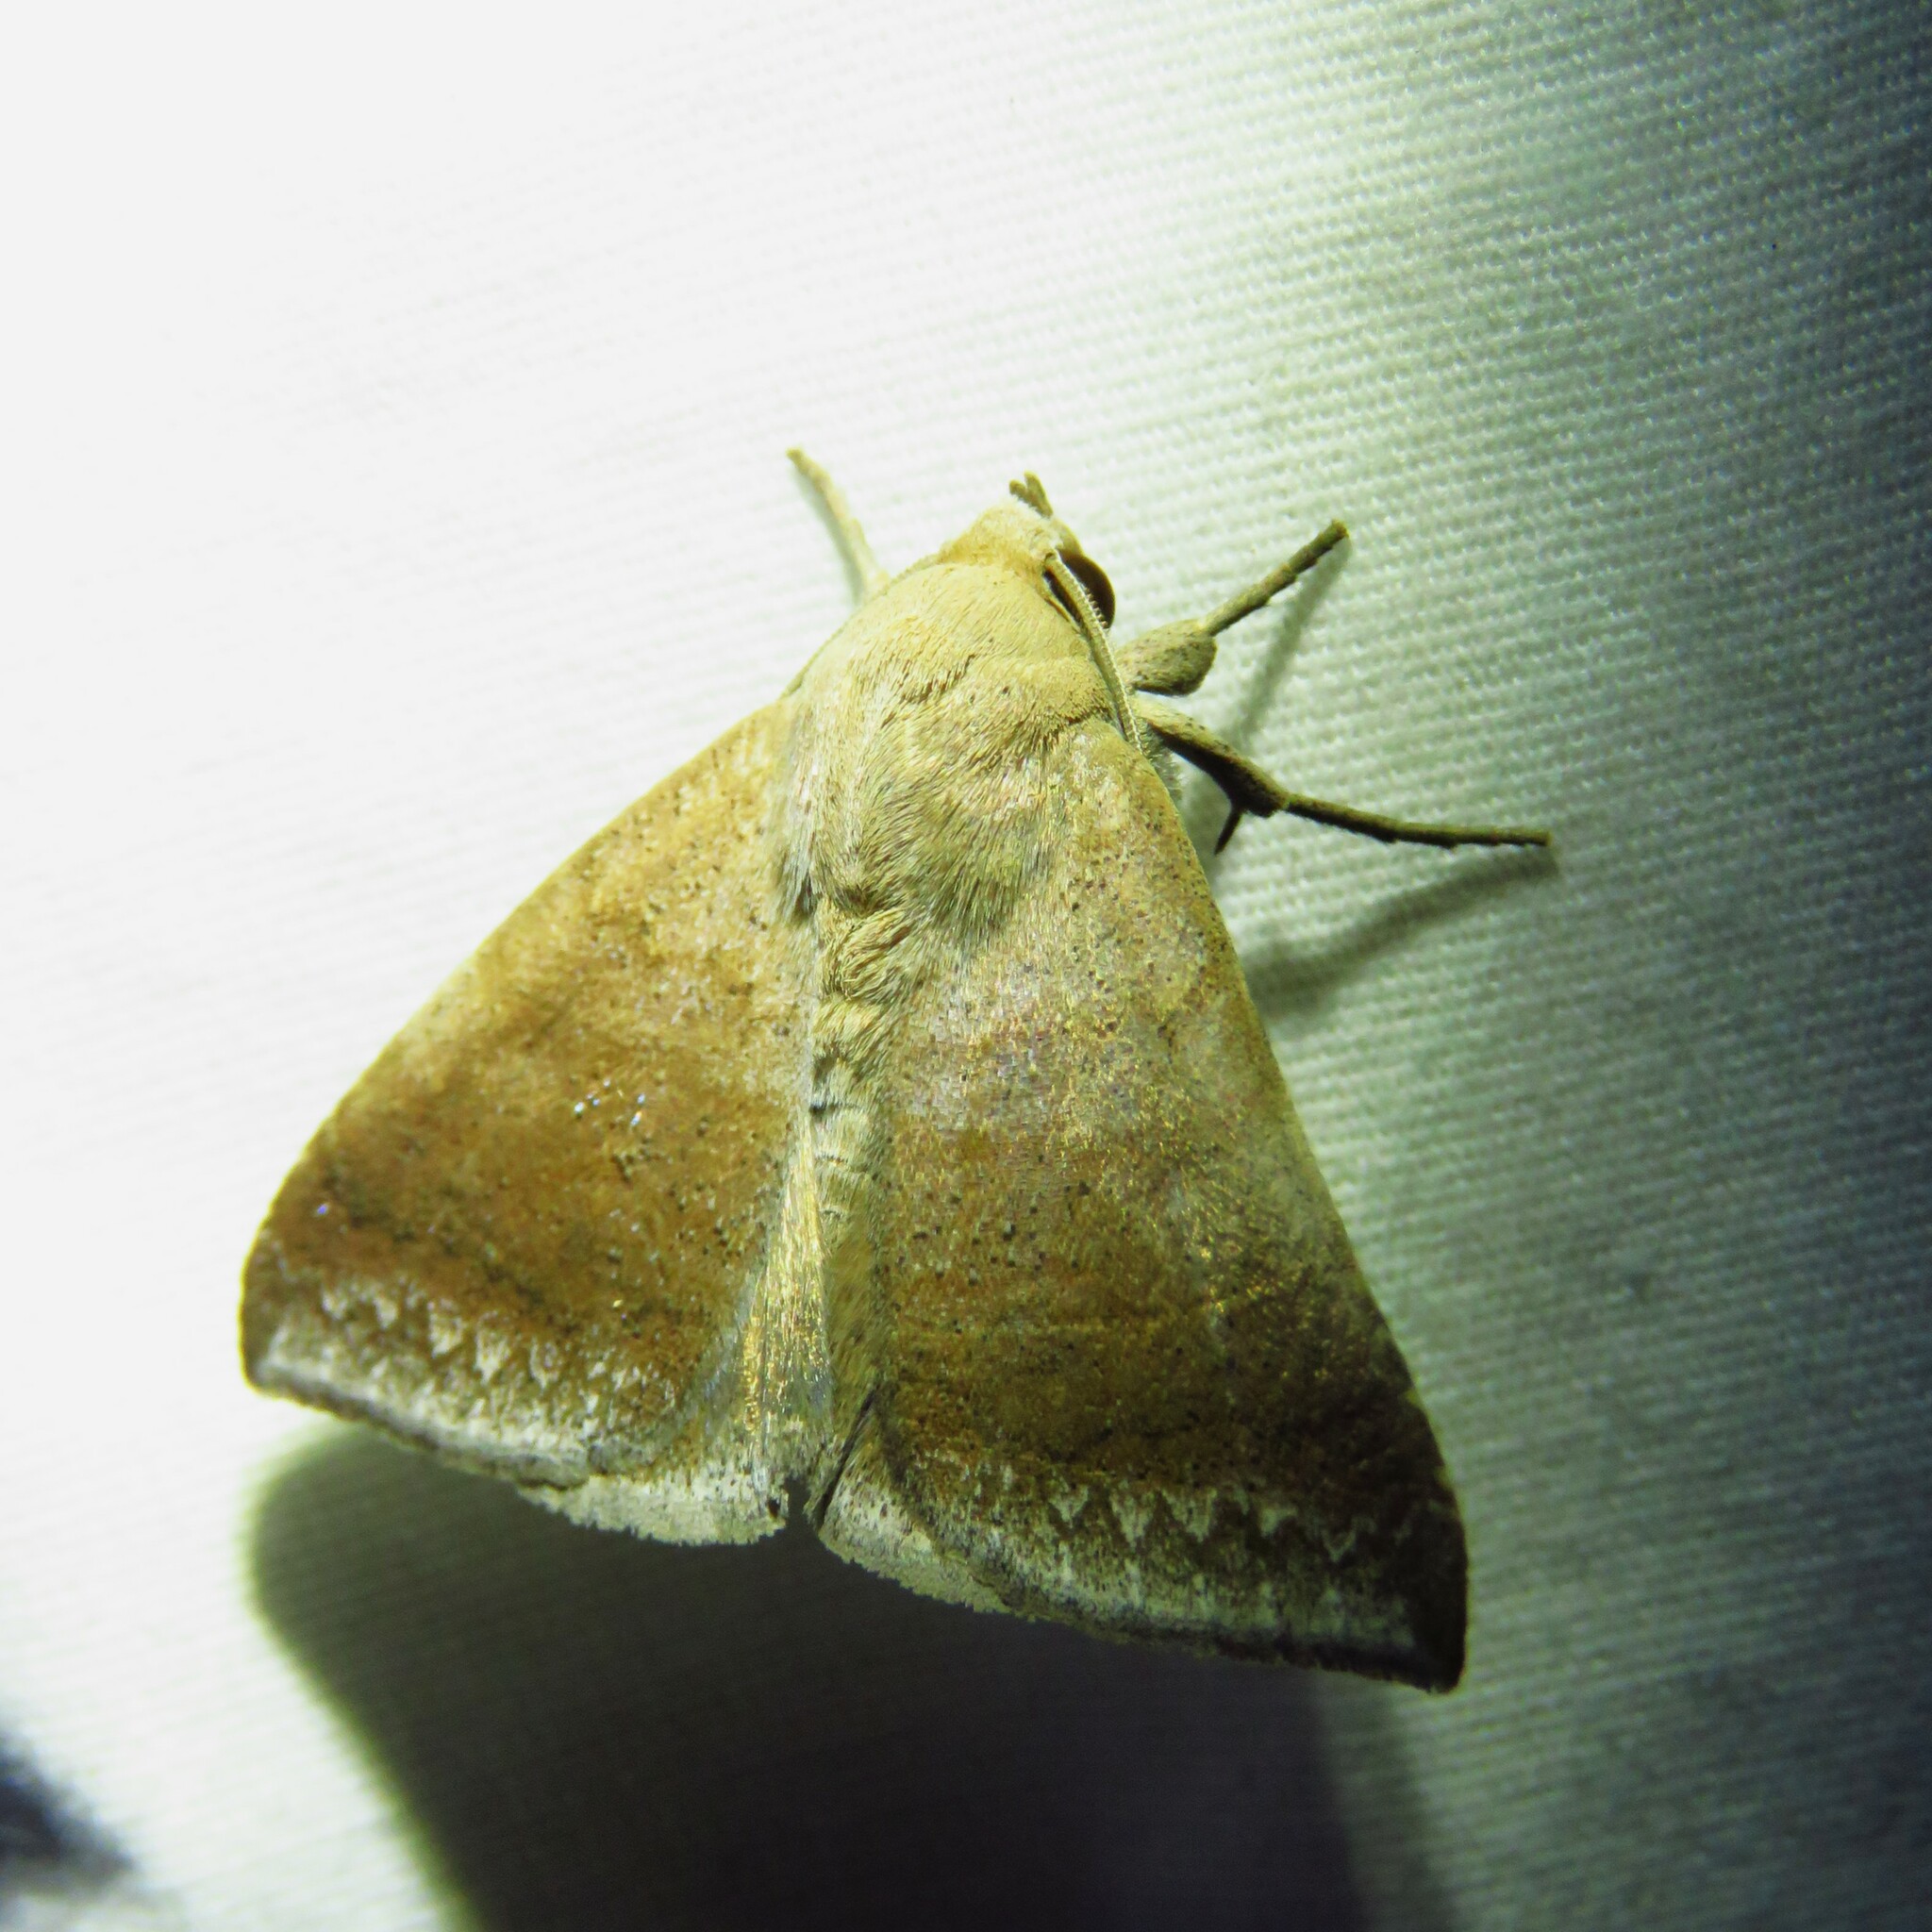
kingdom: Animalia
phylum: Arthropoda
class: Insecta
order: Lepidoptera
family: Erebidae
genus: Achaea
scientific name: Achaea Mimophisma delunaris
